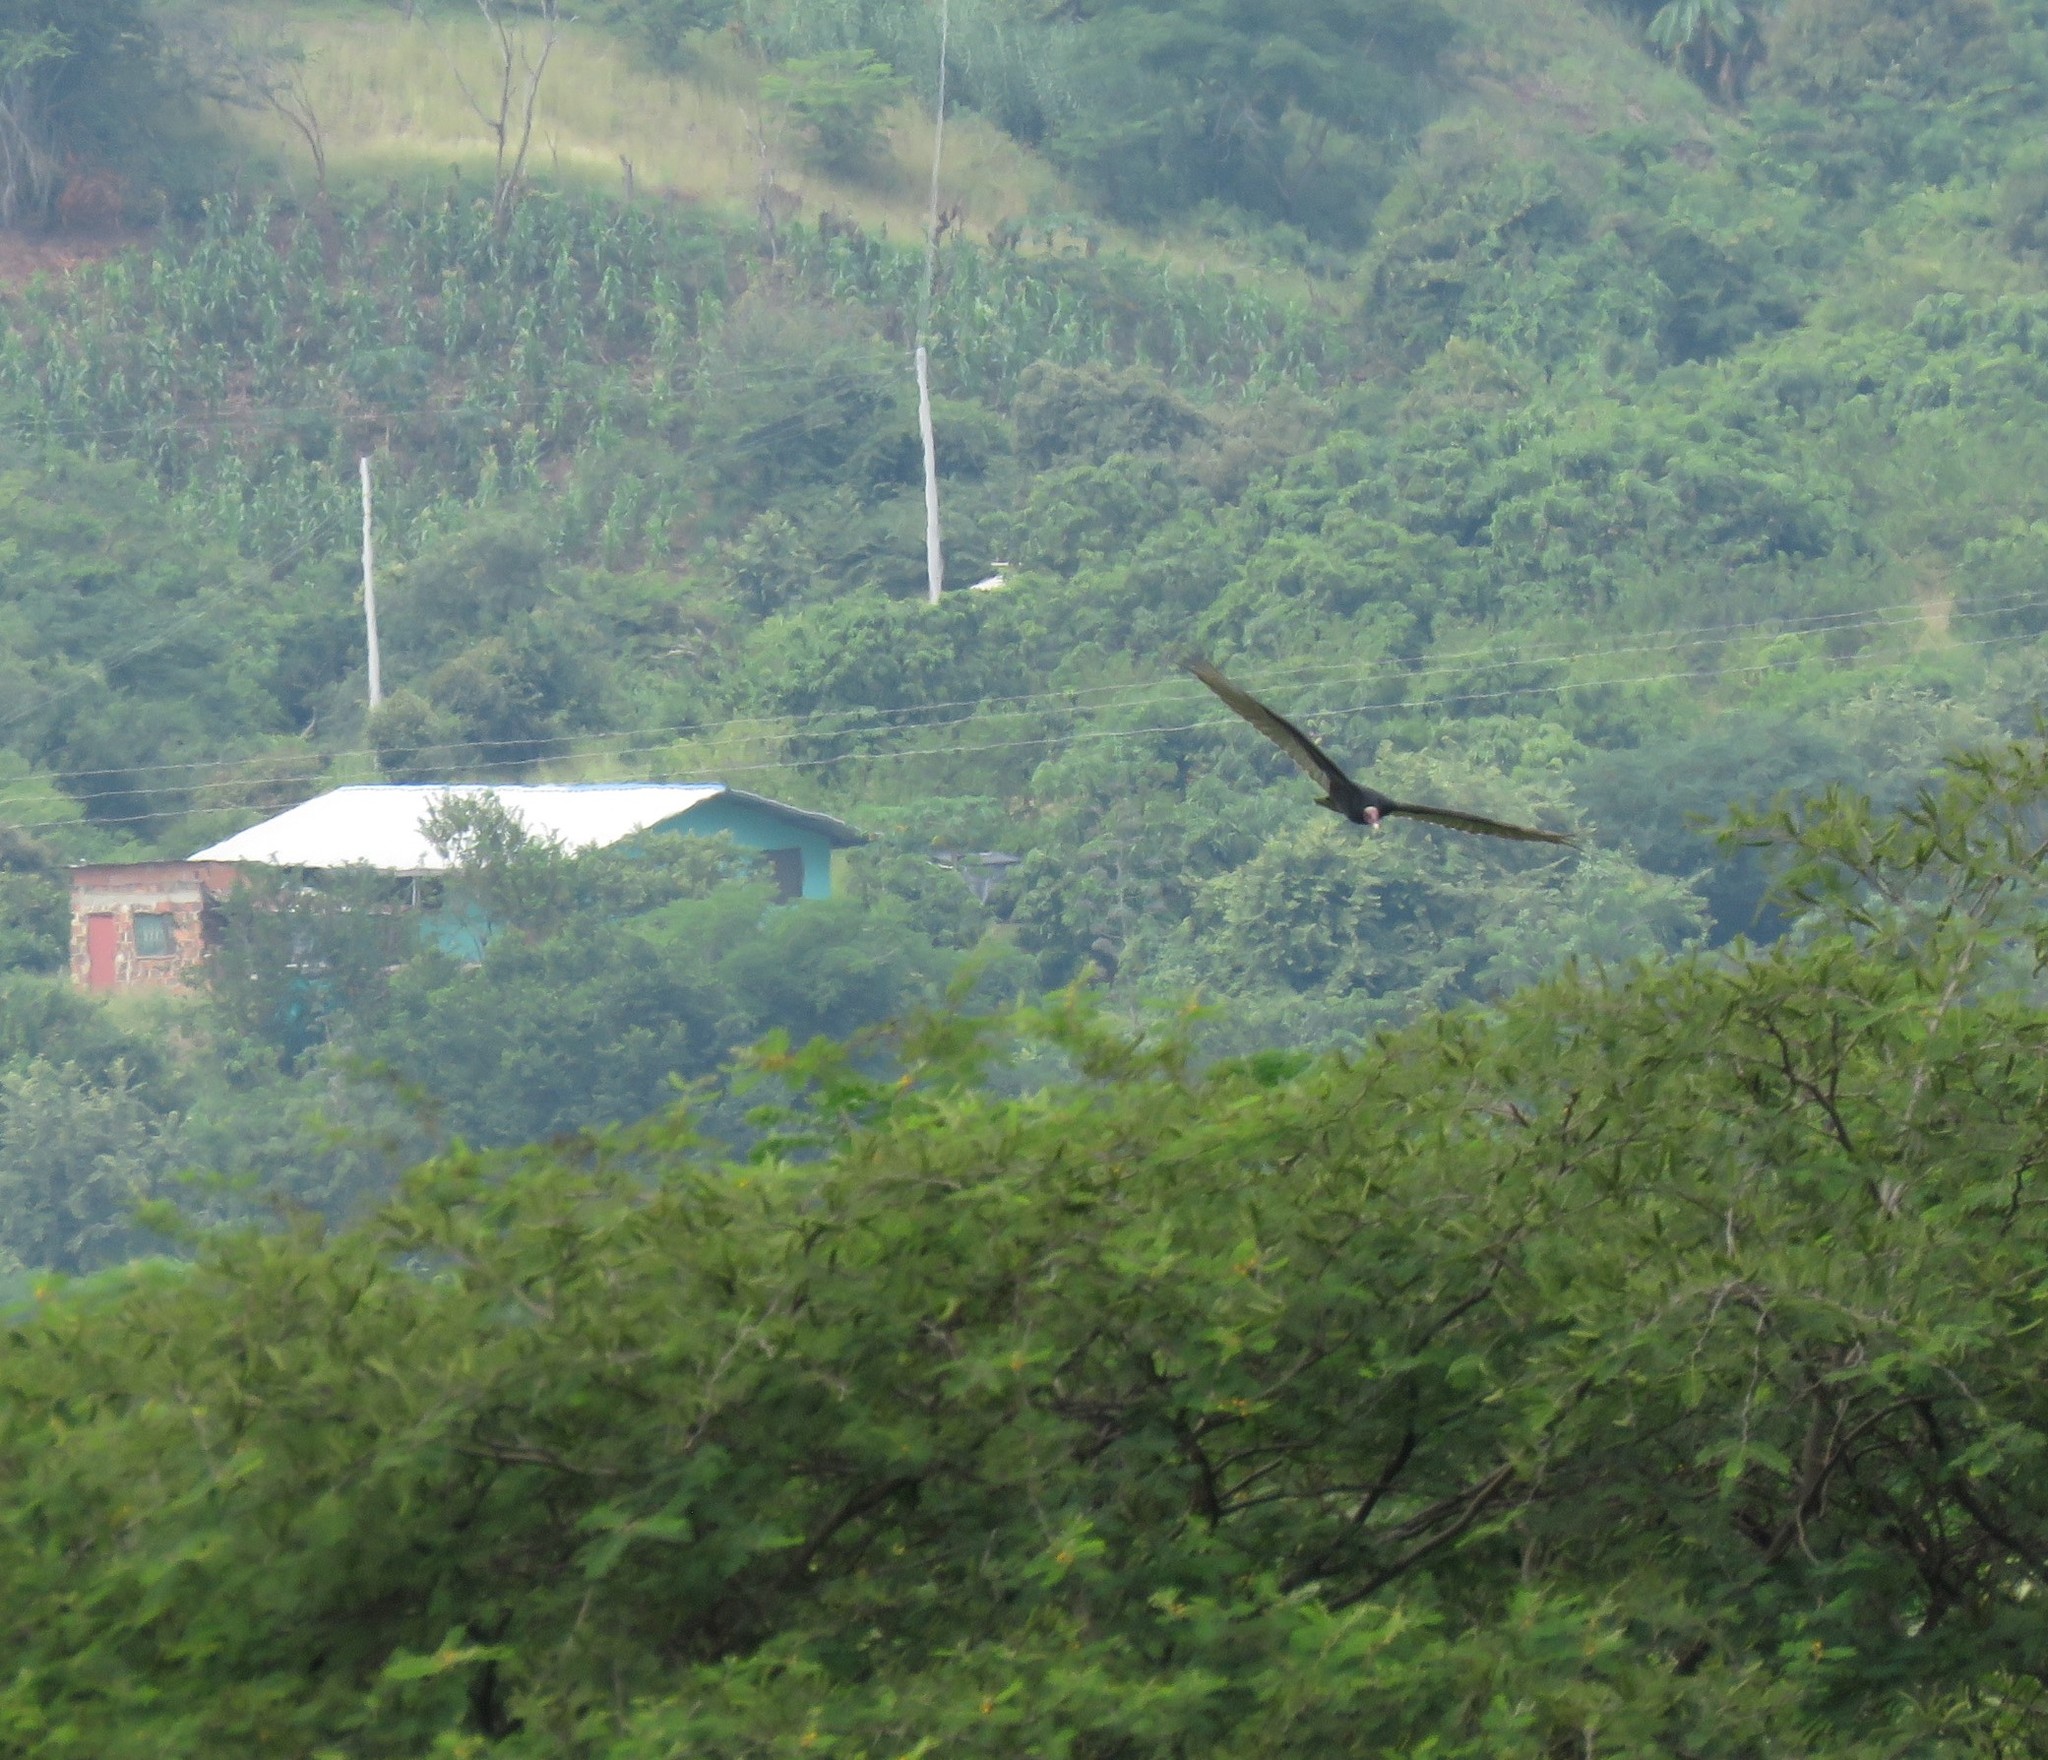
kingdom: Animalia
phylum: Chordata
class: Aves
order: Accipitriformes
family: Cathartidae
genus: Cathartes
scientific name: Cathartes aura
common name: Turkey vulture
